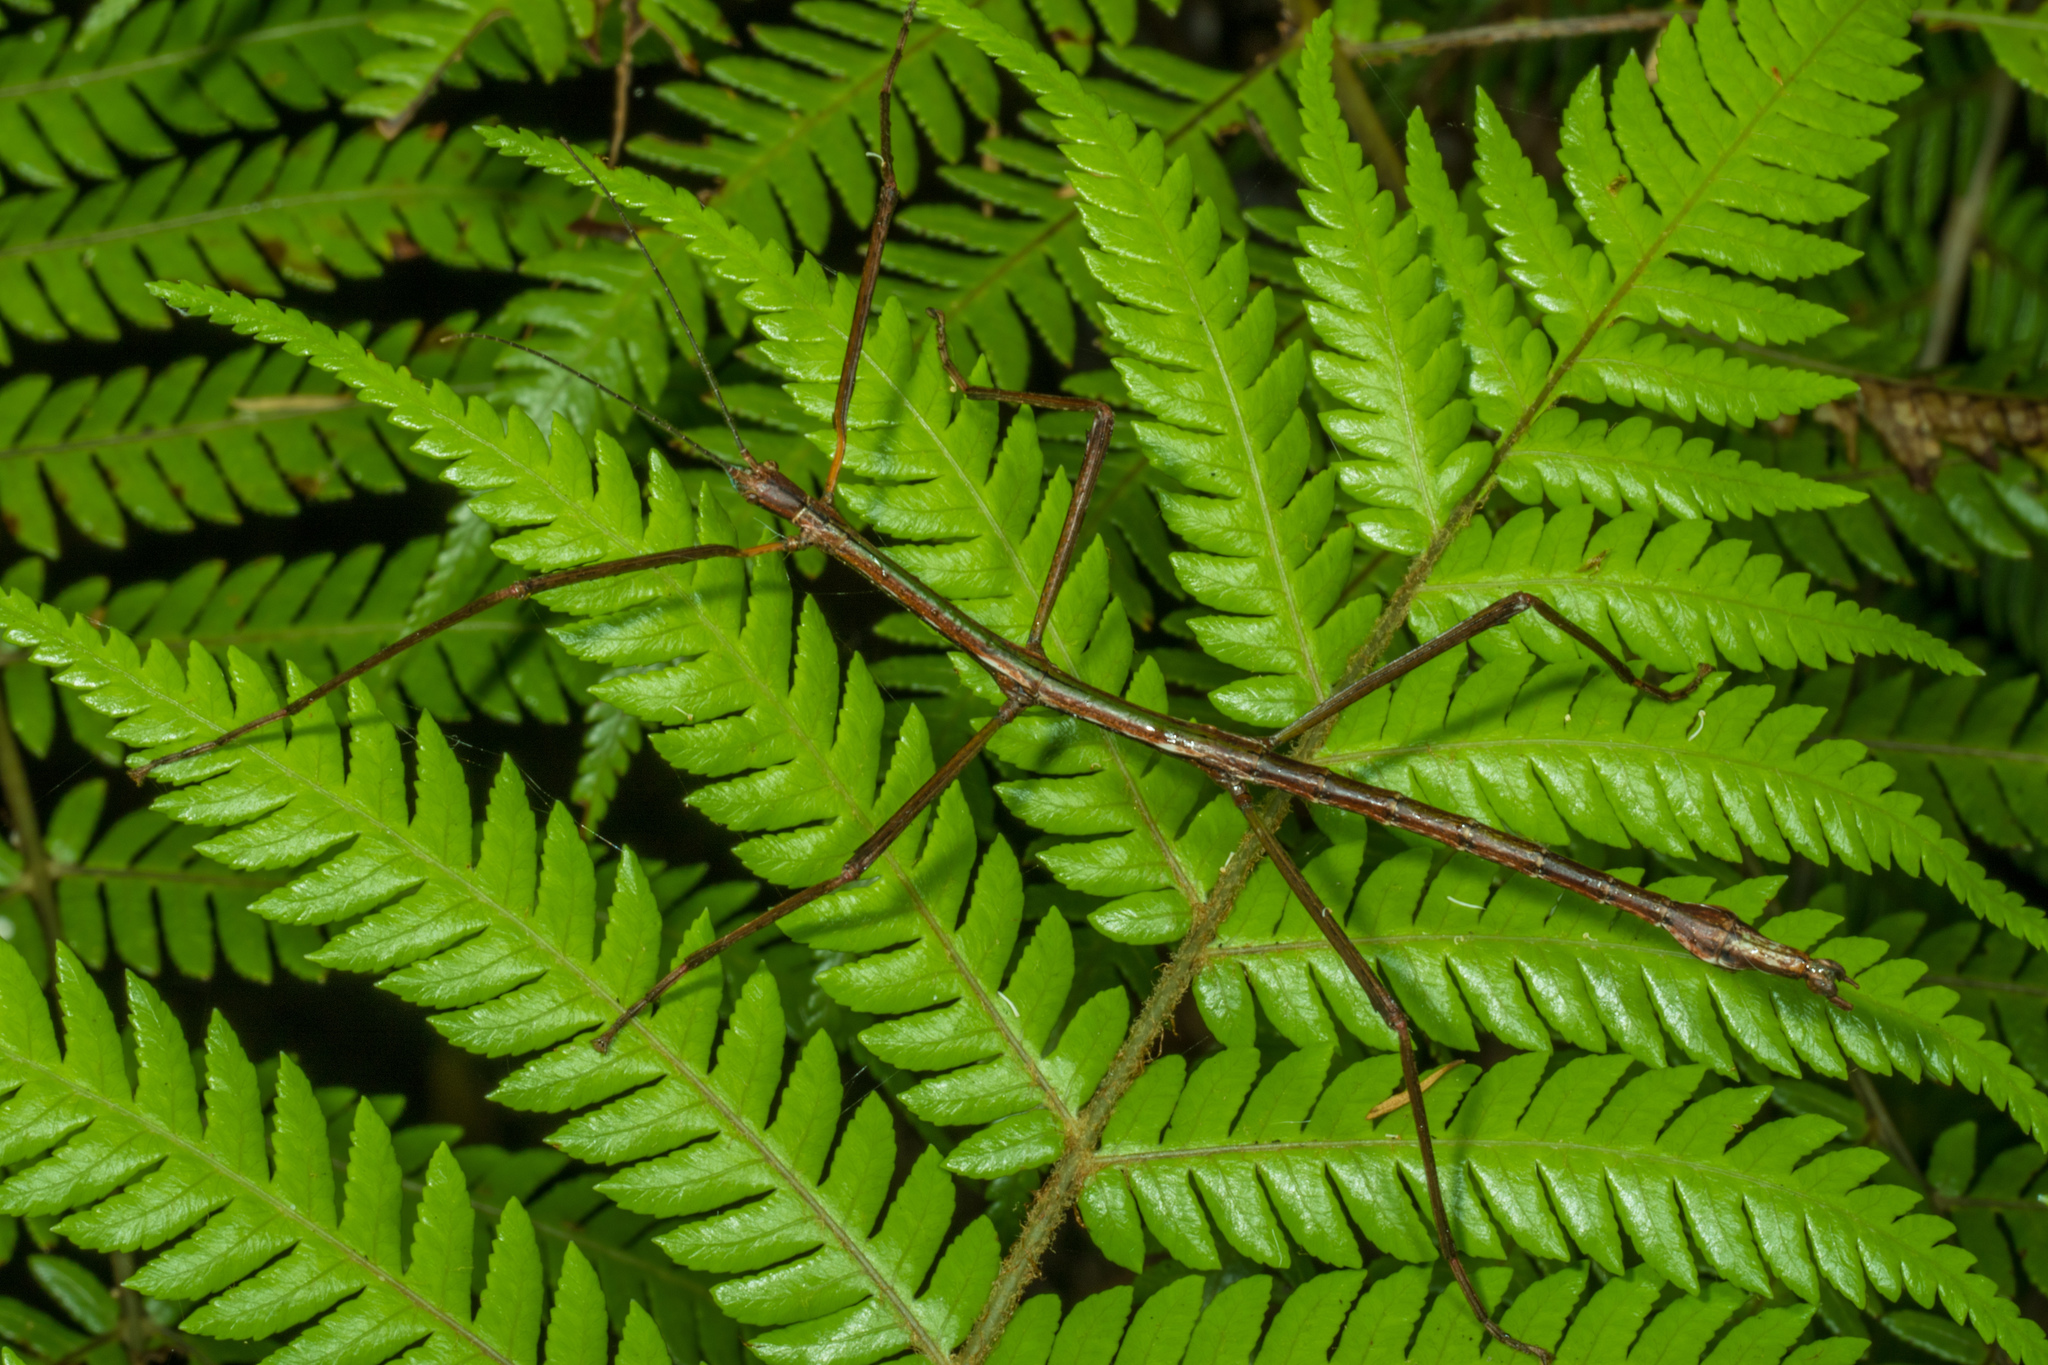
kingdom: Animalia
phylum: Arthropoda
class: Insecta
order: Phasmida
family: Phasmatidae
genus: Clitarchus
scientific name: Clitarchus hookeri
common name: Smooth stick insect
